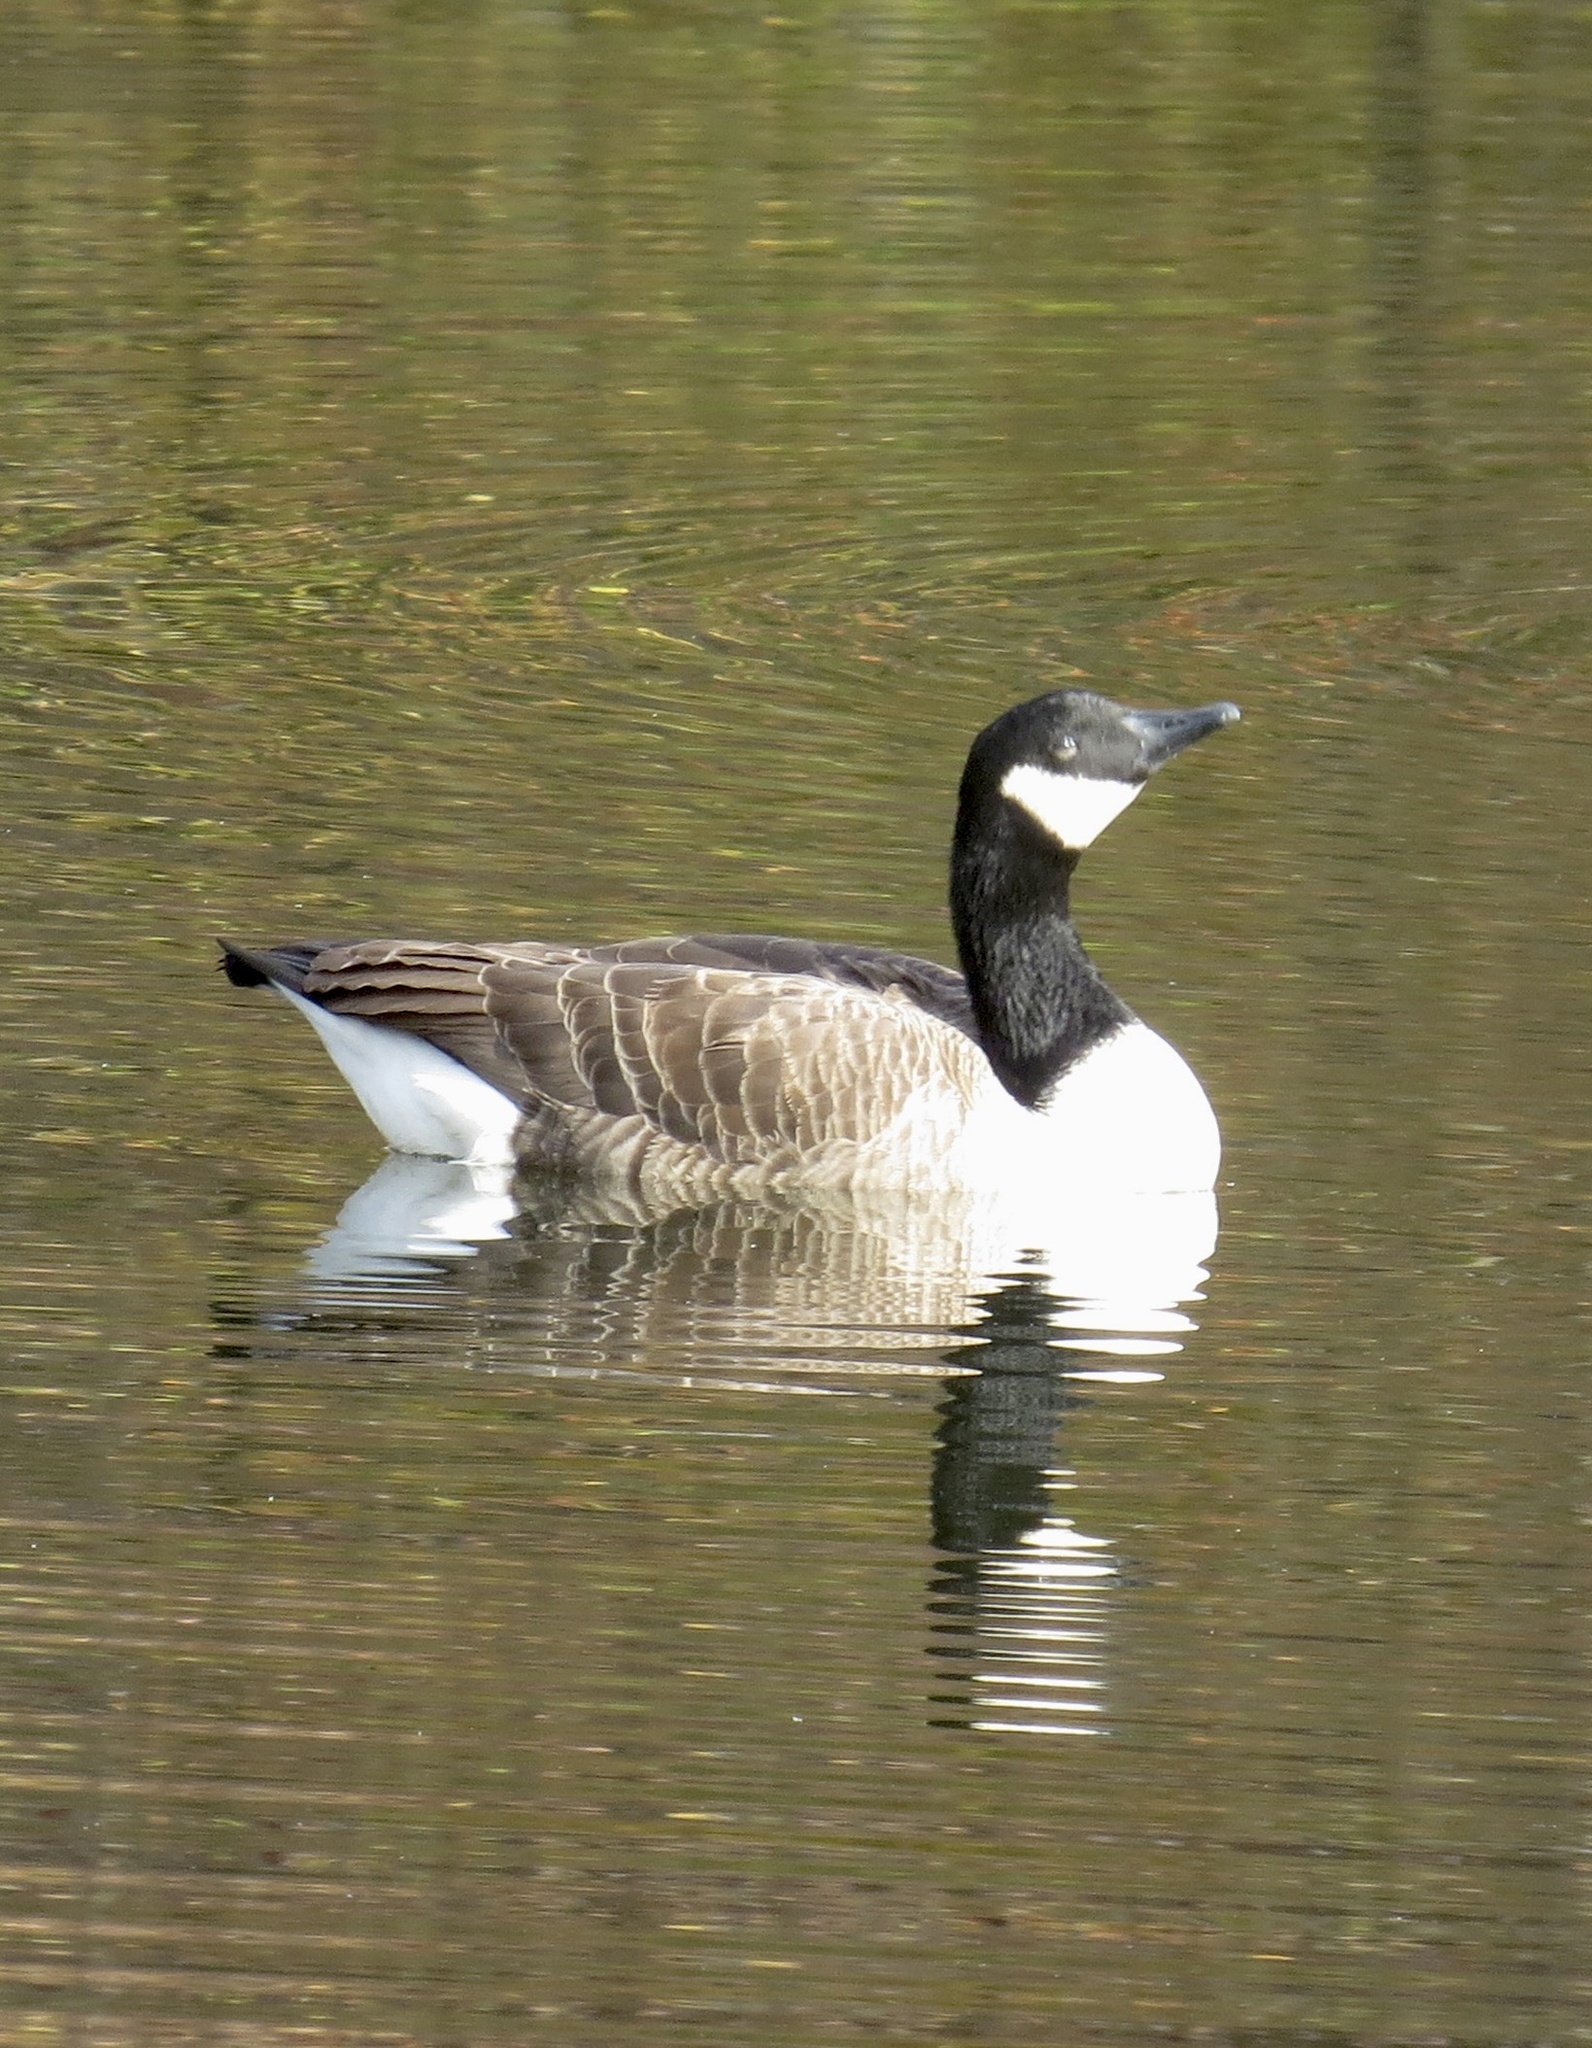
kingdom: Animalia
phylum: Chordata
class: Aves
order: Anseriformes
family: Anatidae
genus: Branta
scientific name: Branta canadensis
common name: Canada goose
